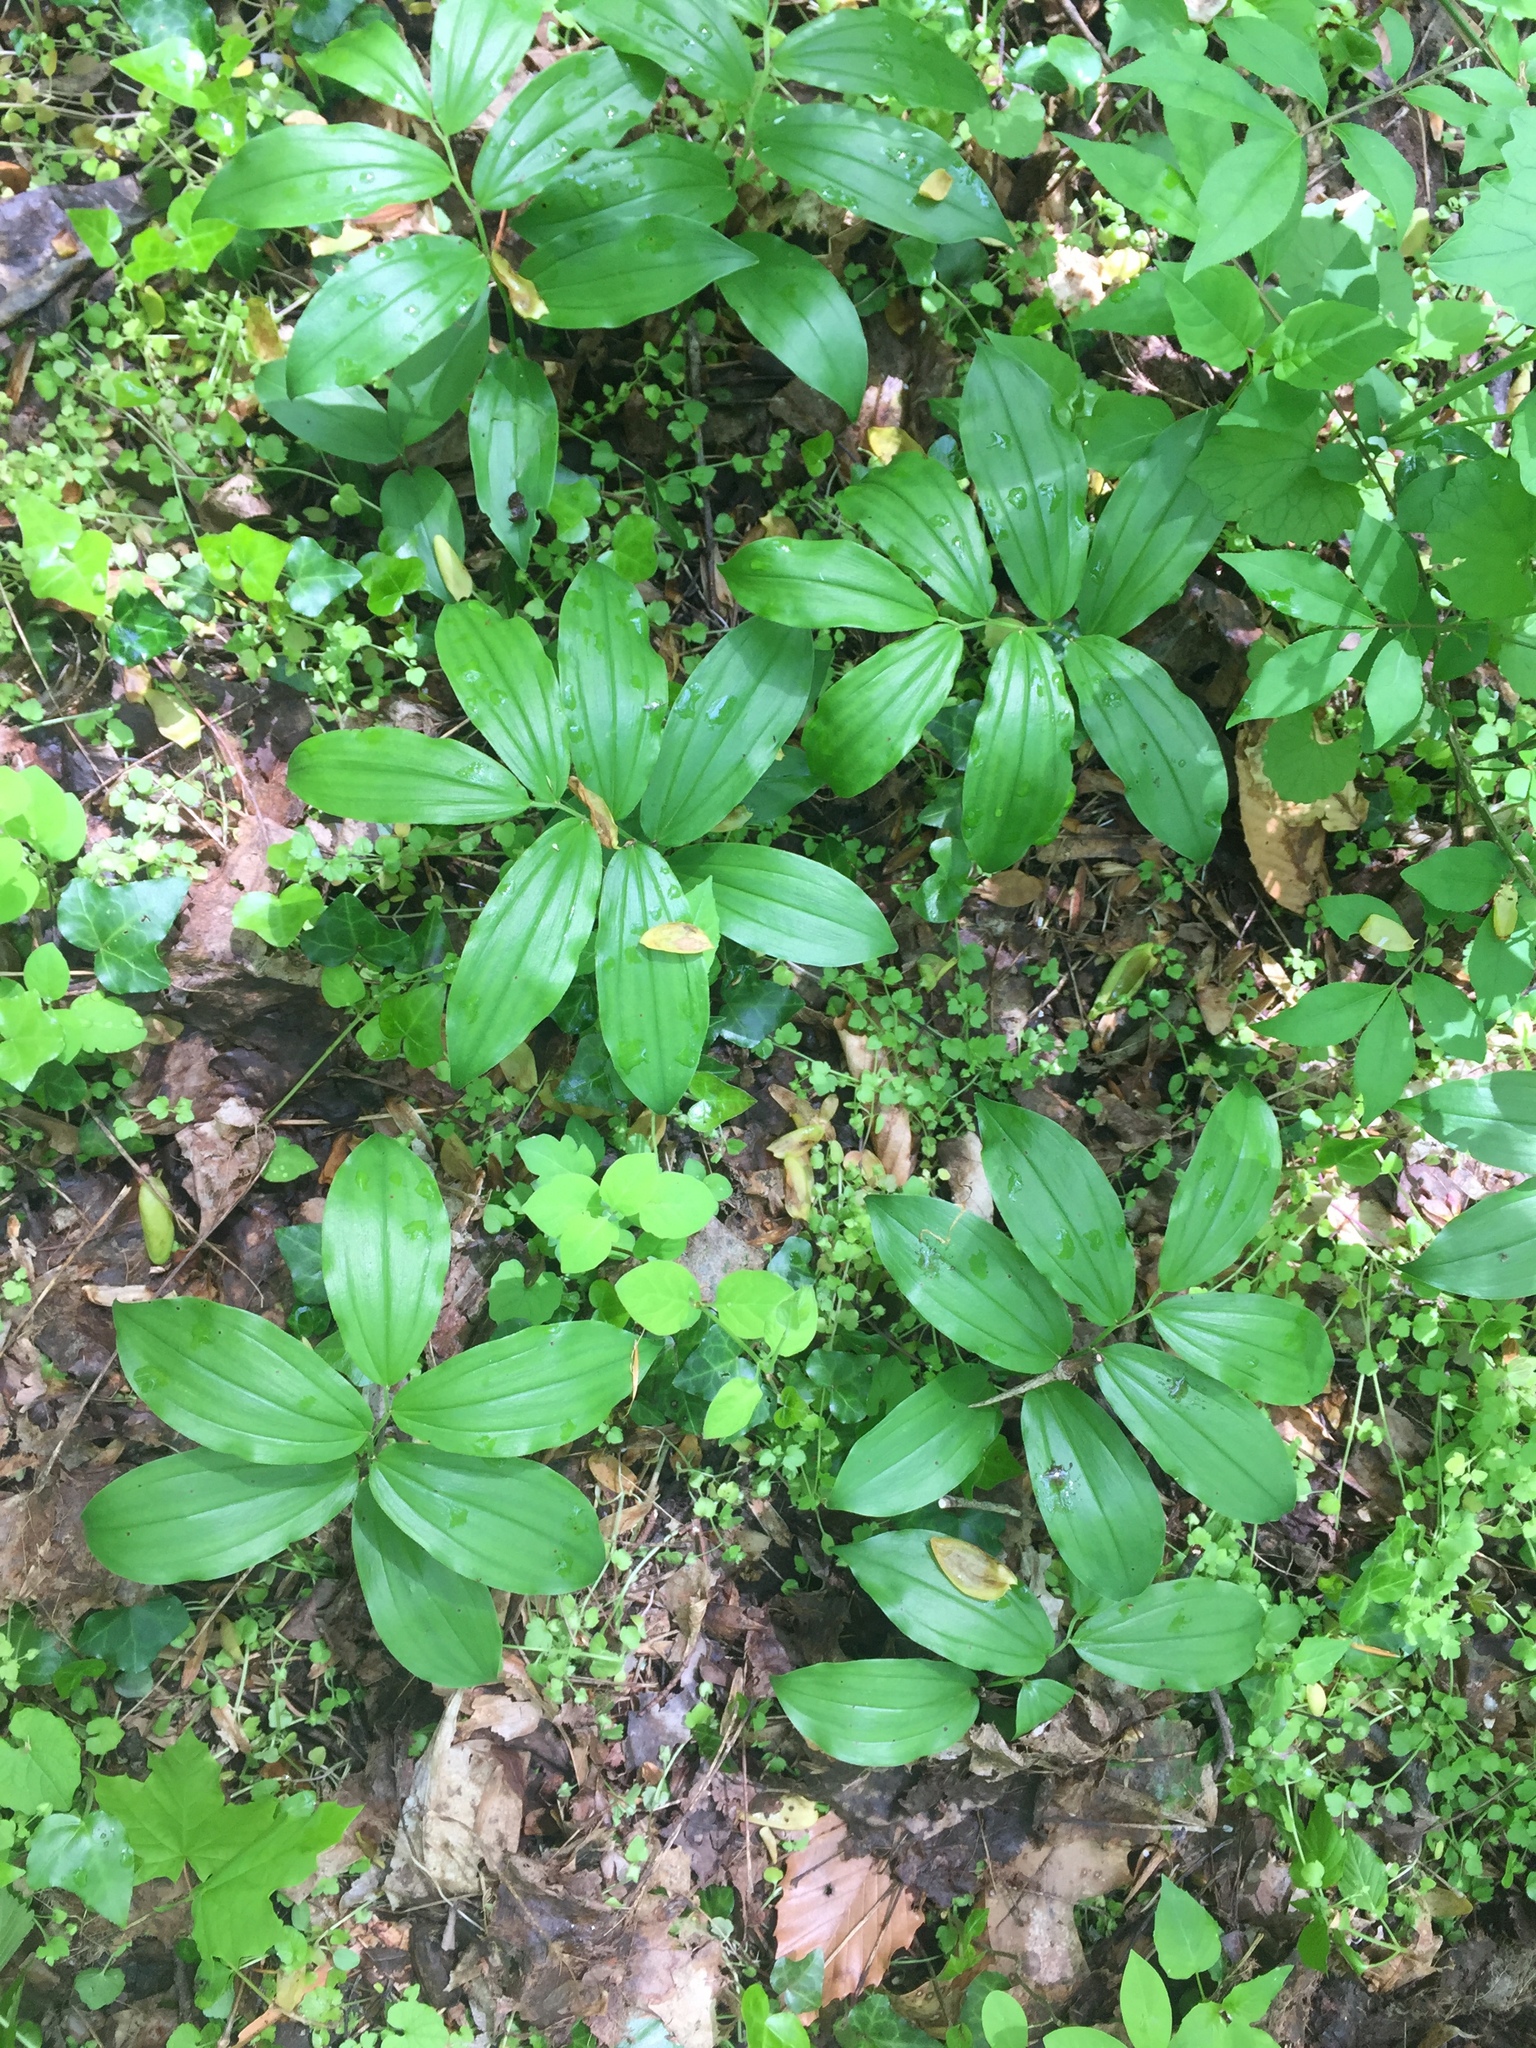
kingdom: Plantae
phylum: Tracheophyta
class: Liliopsida
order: Asparagales
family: Asparagaceae
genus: Maianthemum
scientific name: Maianthemum racemosum
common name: False spikenard
